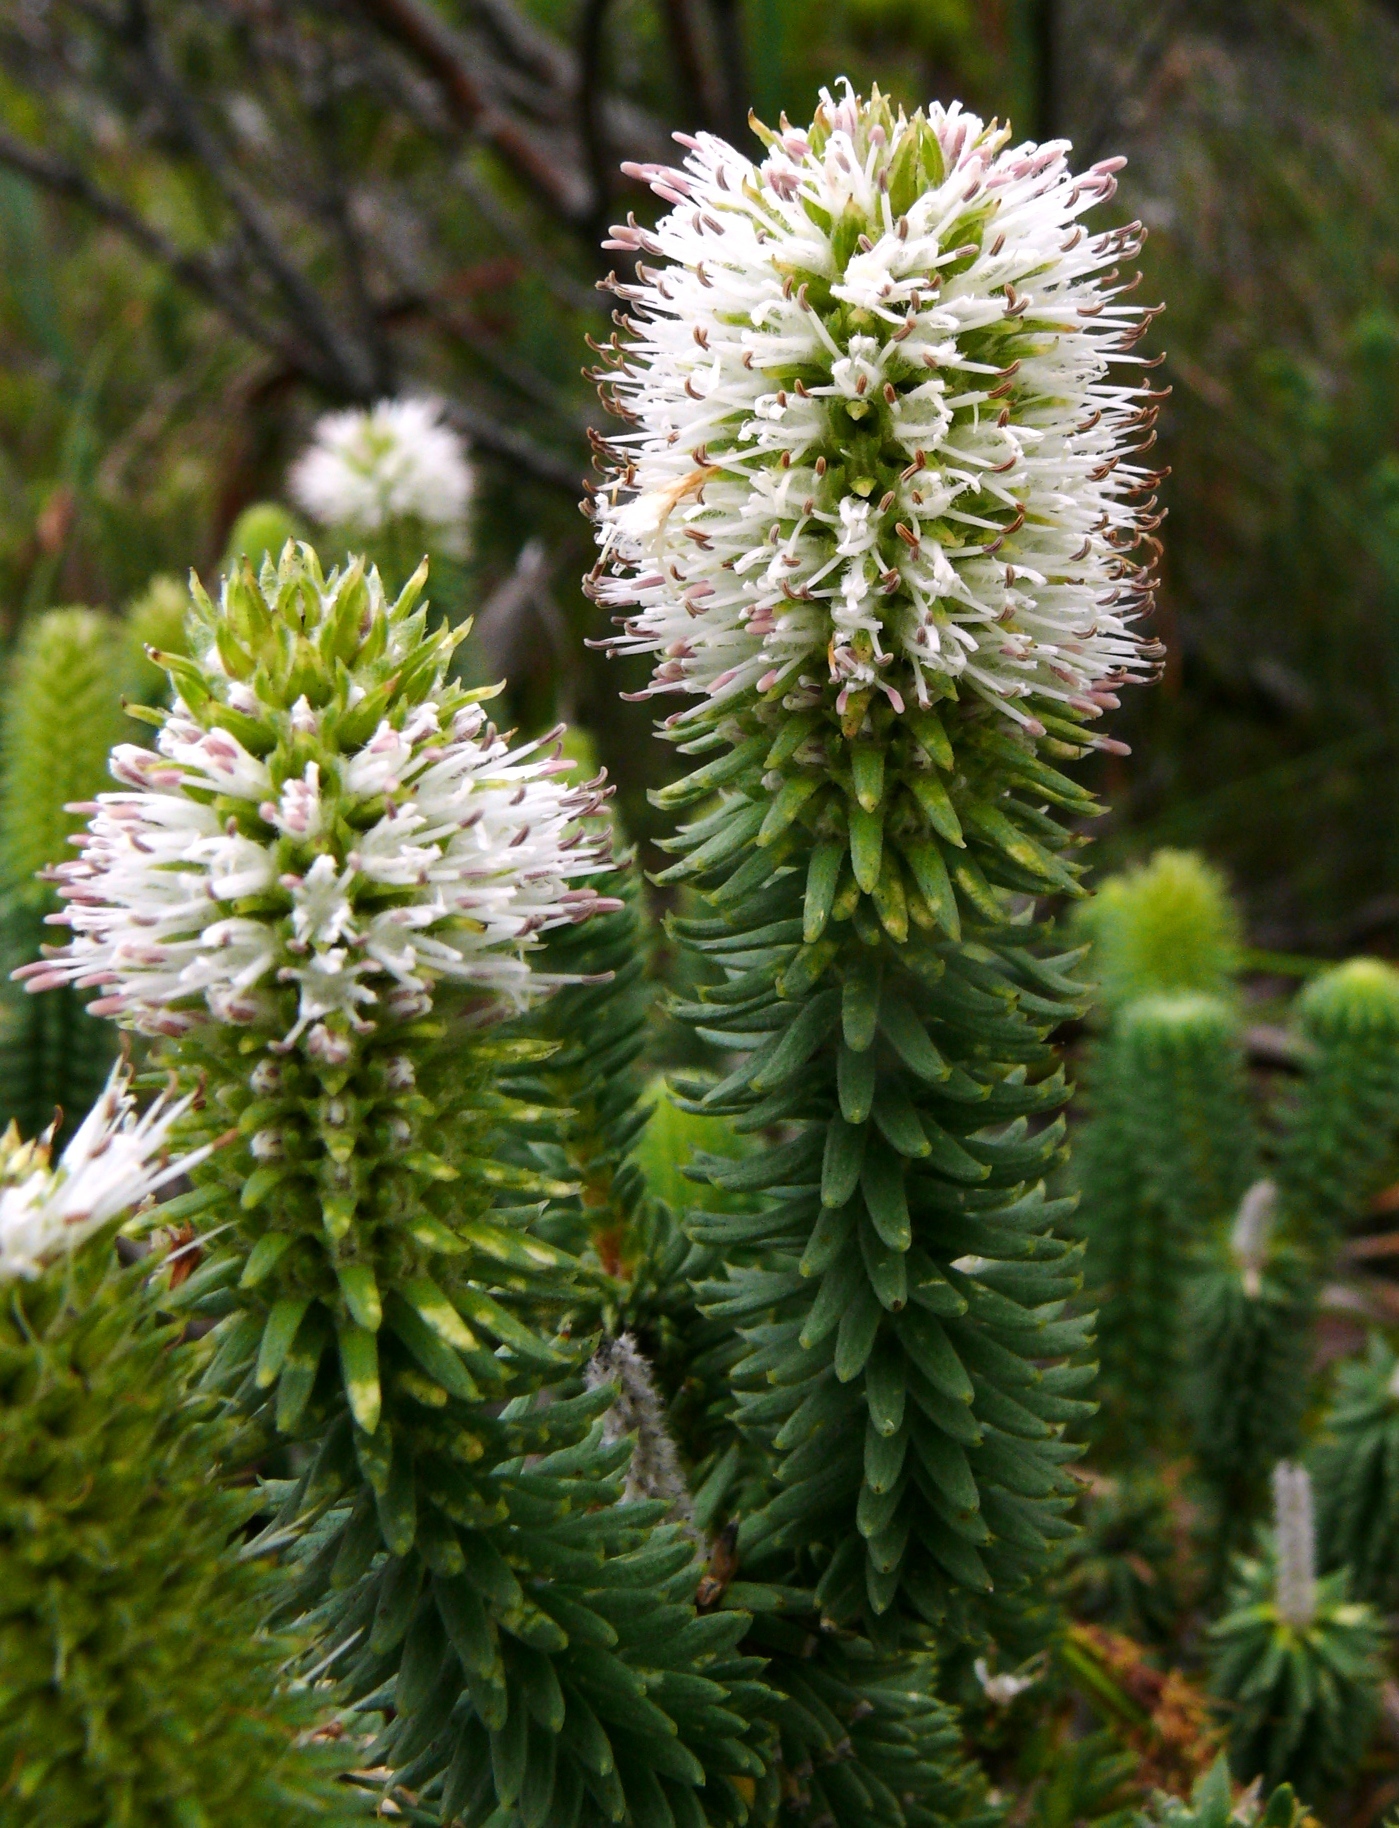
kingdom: Plantae
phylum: Tracheophyta
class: Magnoliopsida
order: Lamiales
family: Stilbaceae
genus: Stilbe
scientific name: Stilbe vestita
